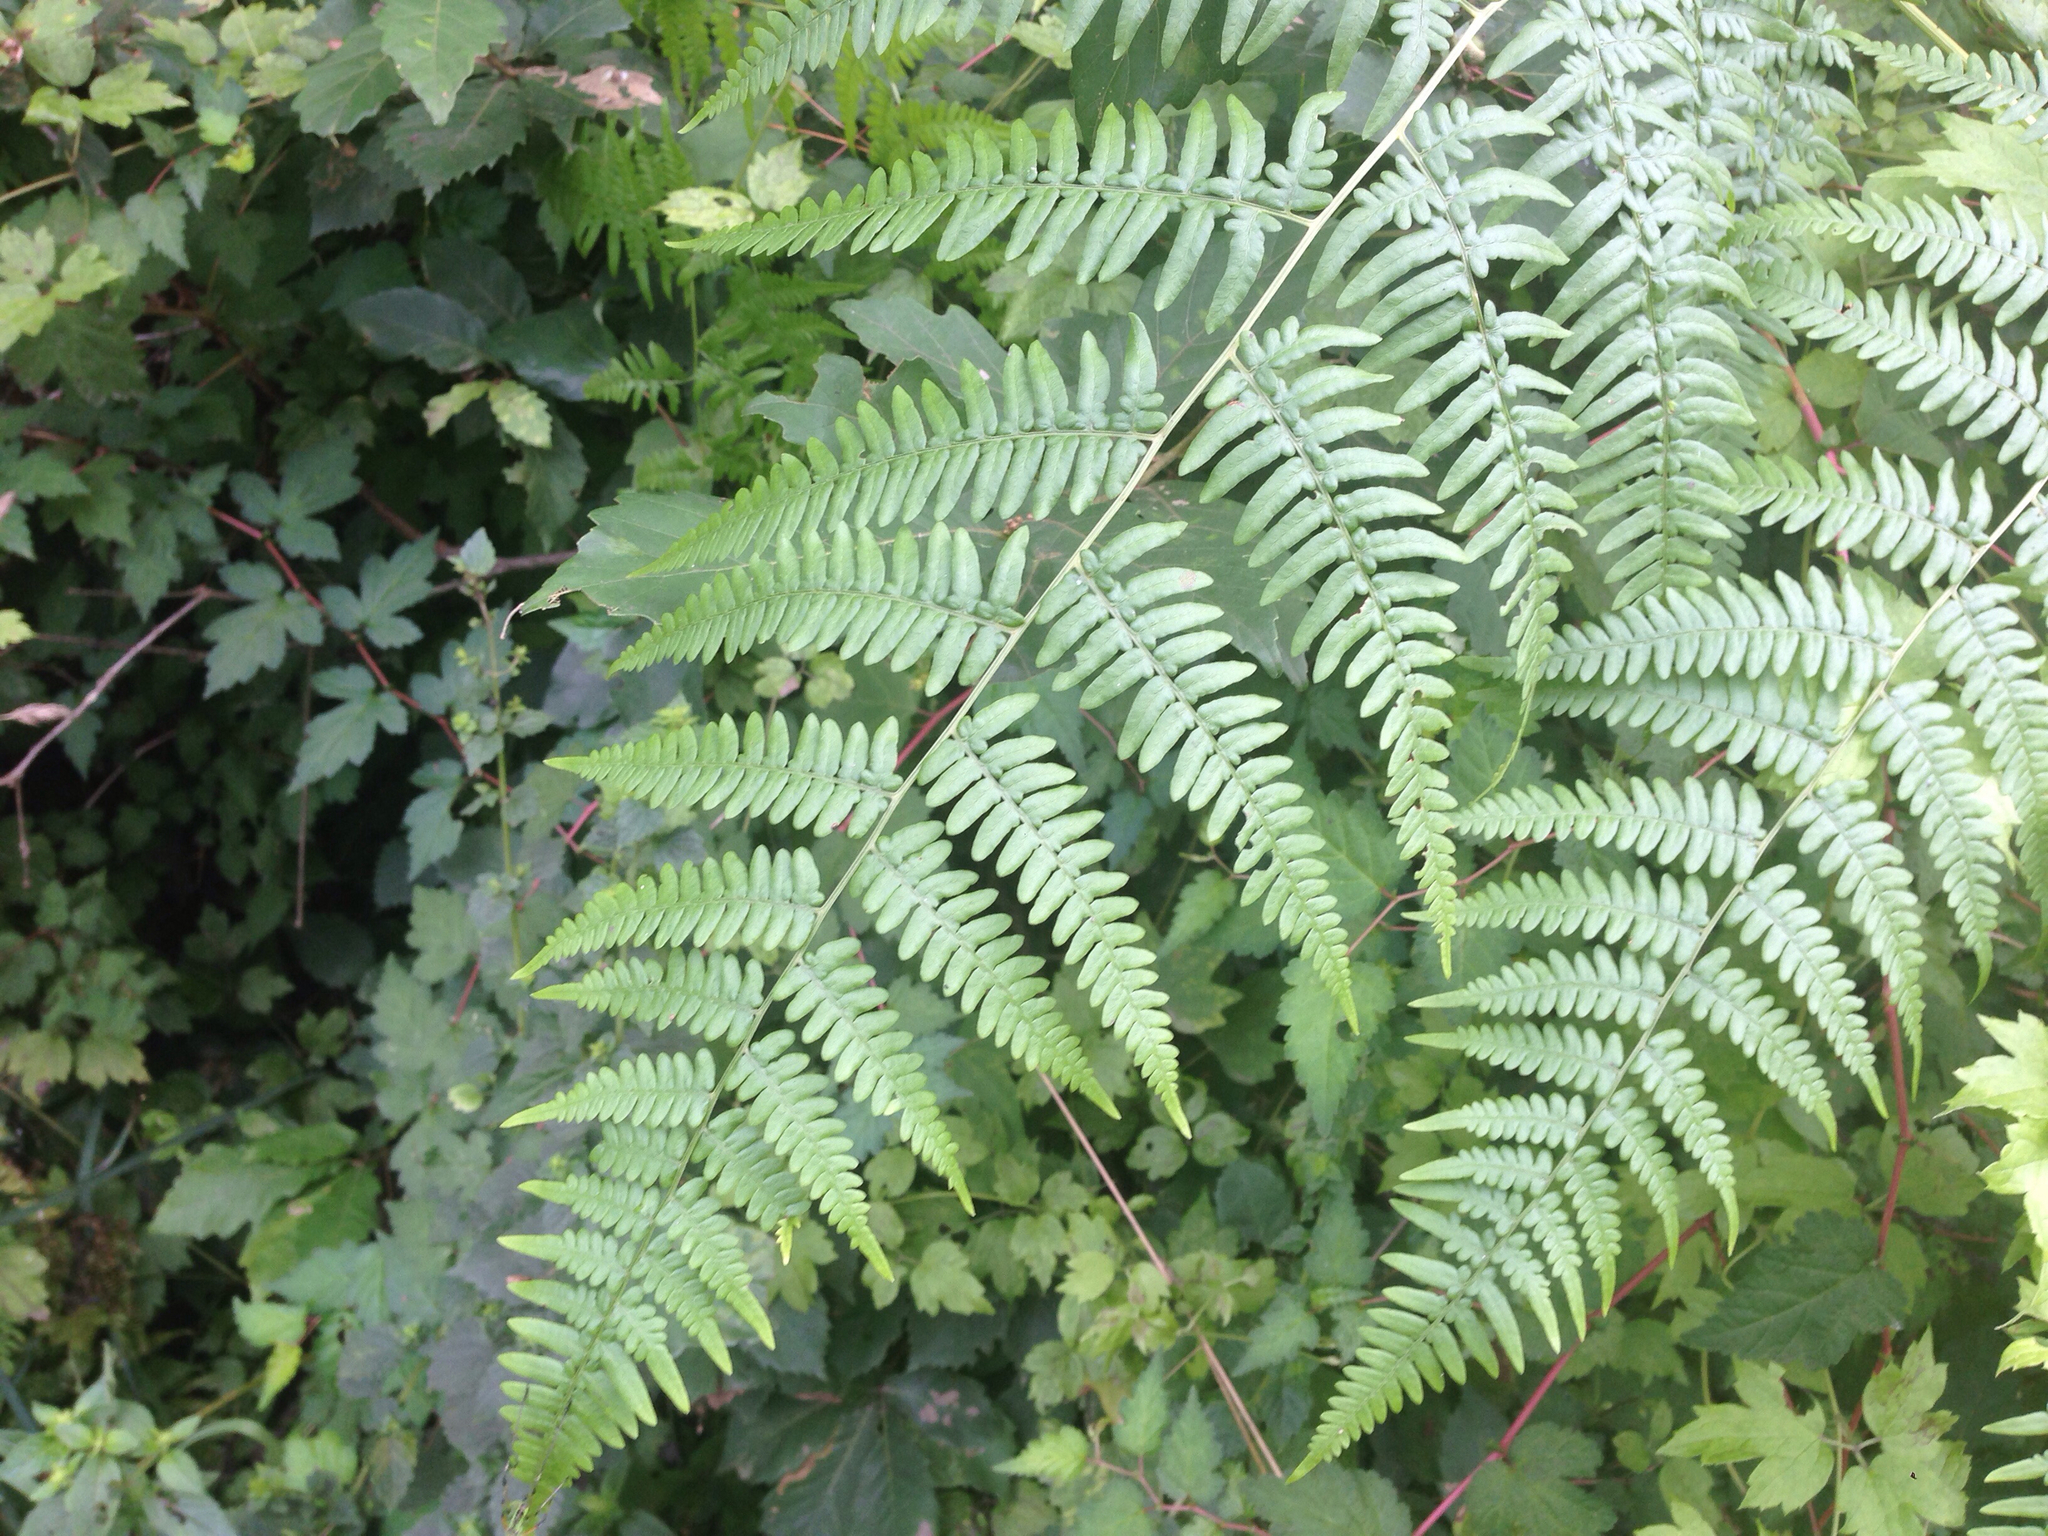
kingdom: Plantae
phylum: Tracheophyta
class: Polypodiopsida
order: Polypodiales
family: Dennstaedtiaceae
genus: Pteridium
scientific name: Pteridium aquilinum
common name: Bracken
